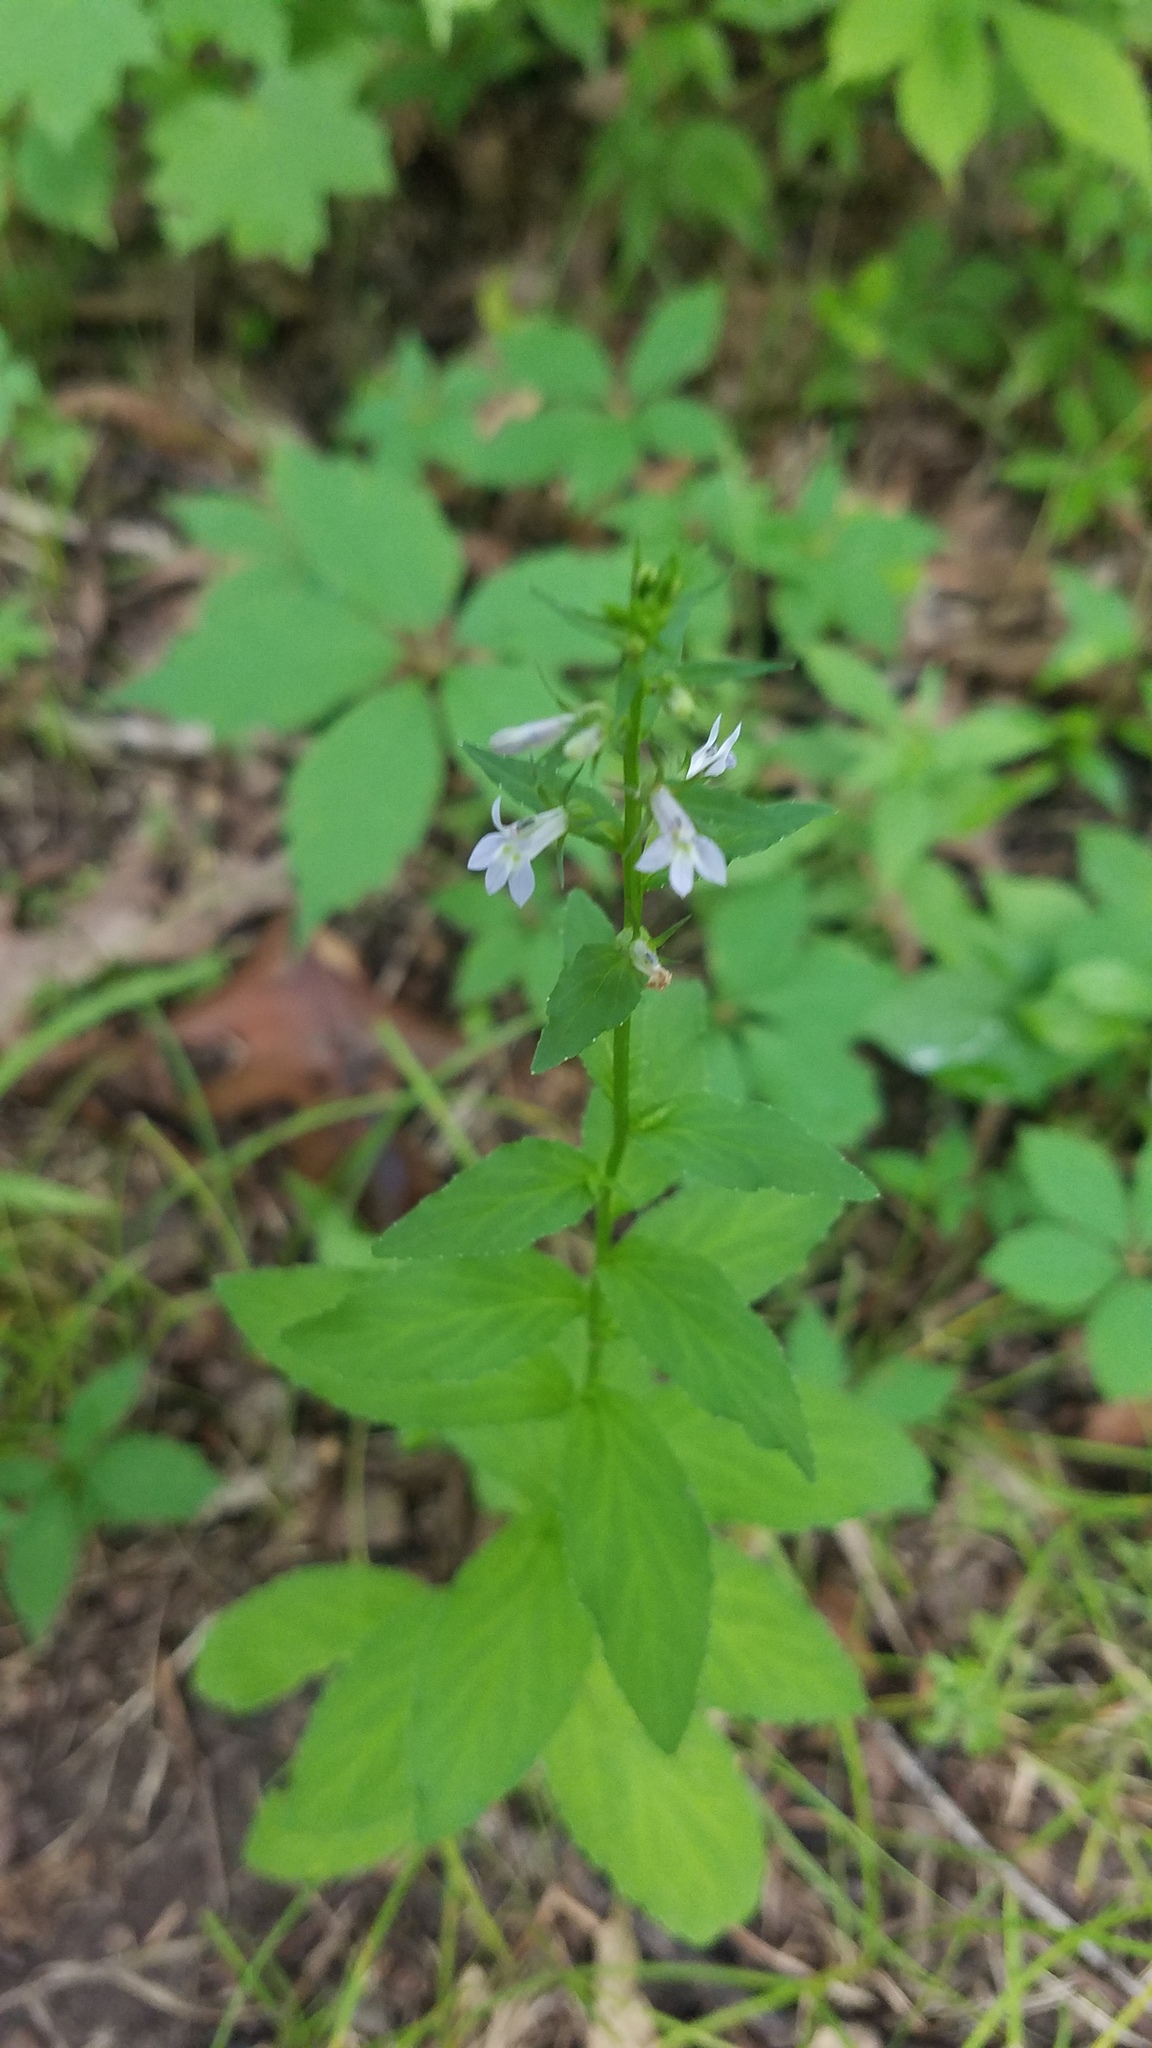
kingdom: Plantae
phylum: Tracheophyta
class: Magnoliopsida
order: Asterales
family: Campanulaceae
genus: Lobelia
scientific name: Lobelia inflata
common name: Indian tobacco
